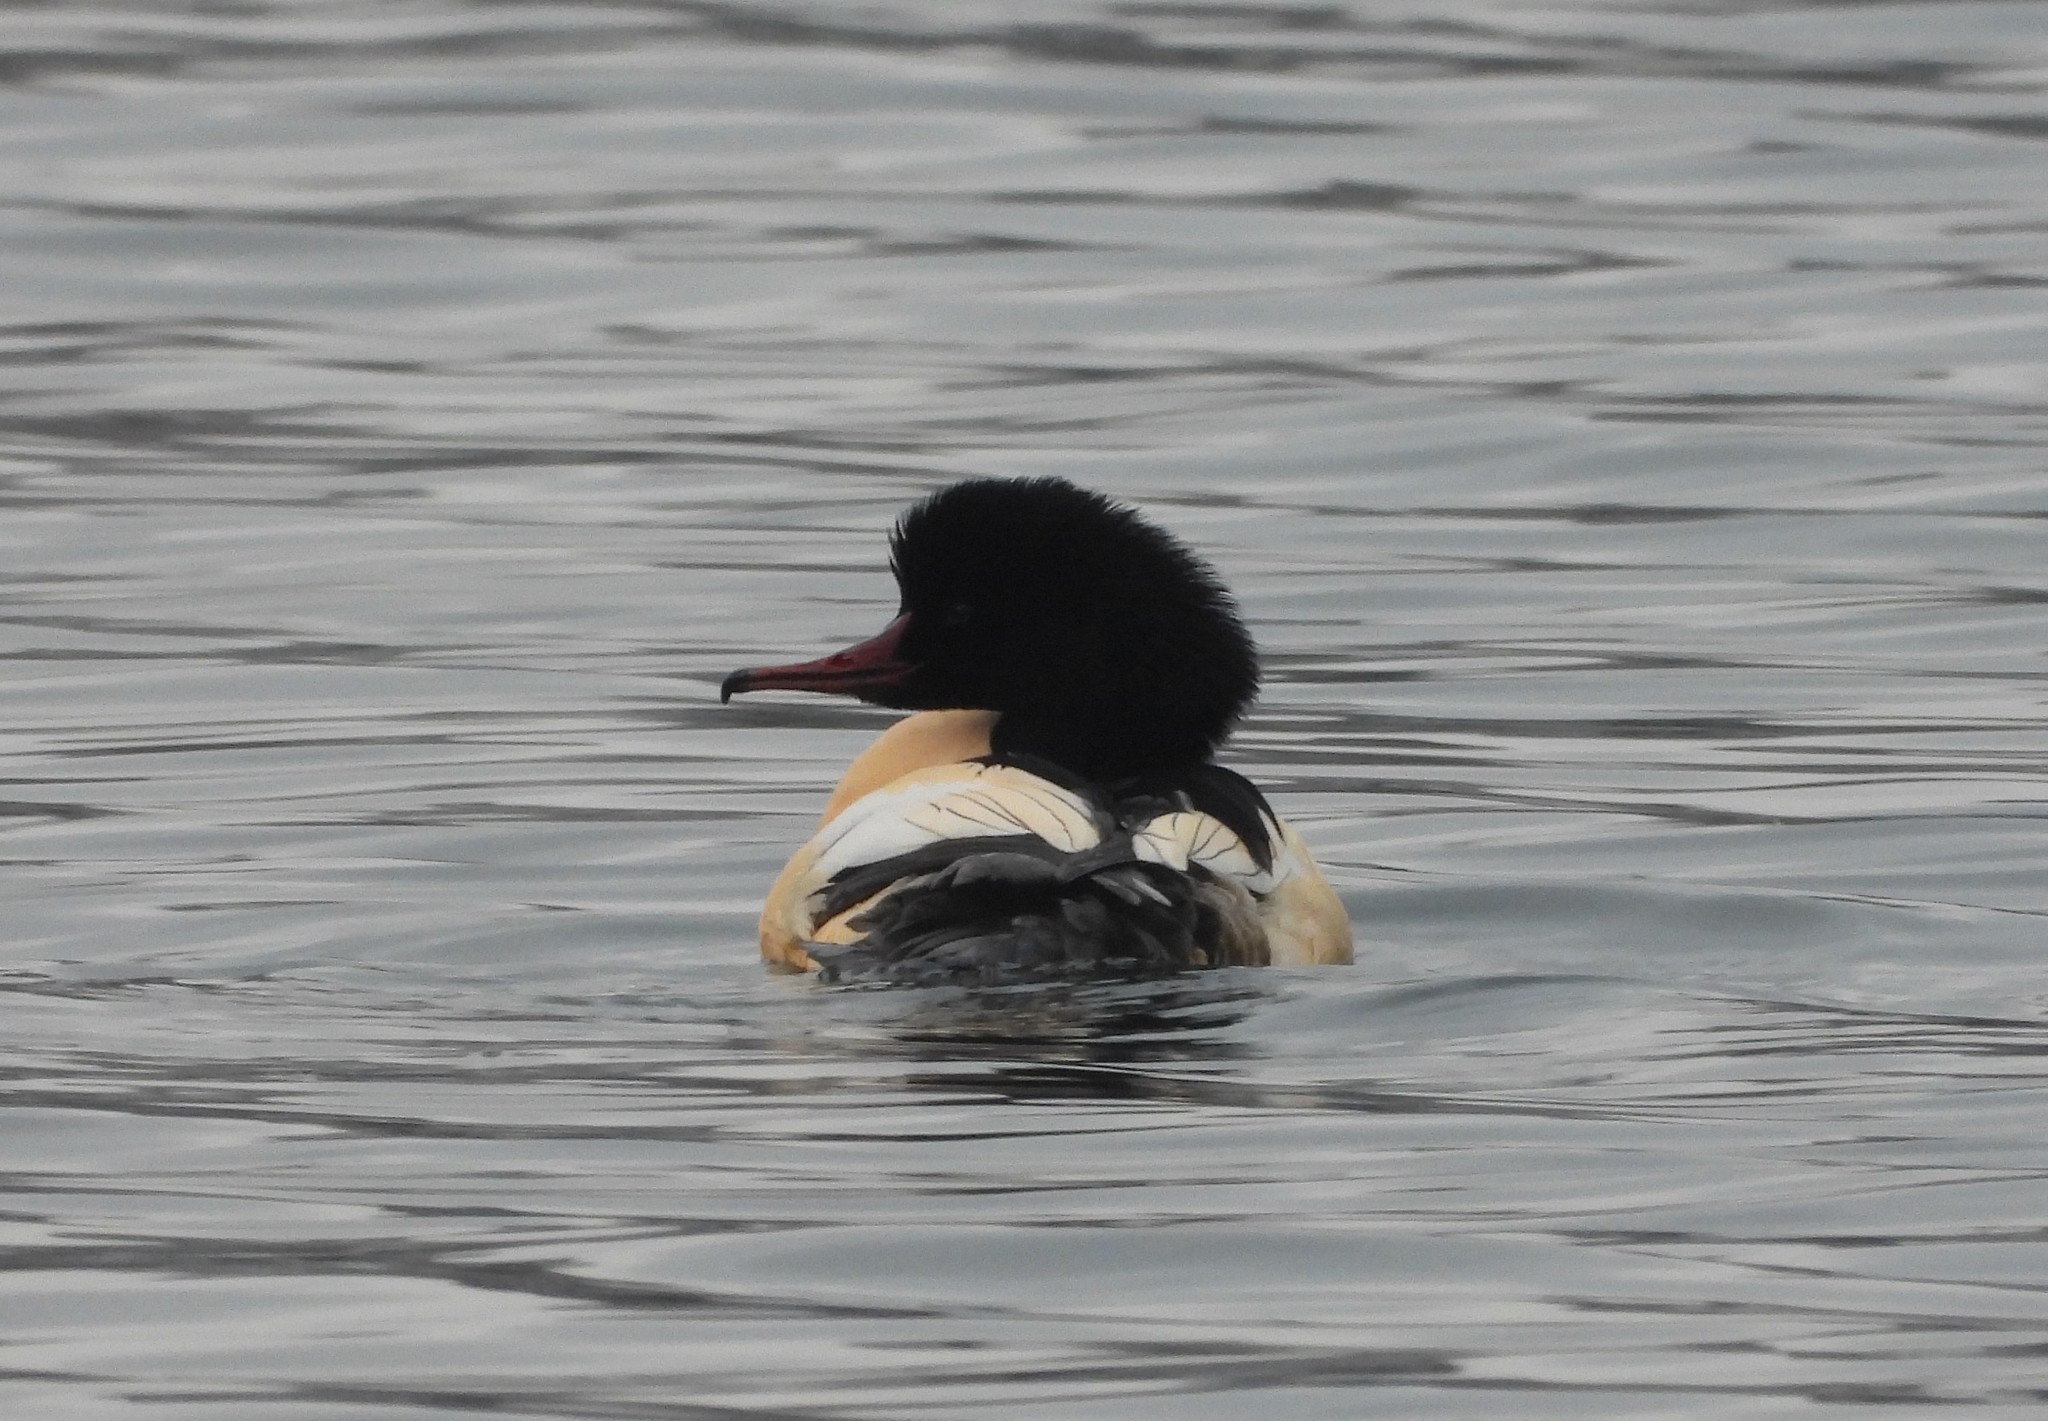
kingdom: Animalia
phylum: Chordata
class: Aves
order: Anseriformes
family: Anatidae
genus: Mergus
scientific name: Mergus merganser
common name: Common merganser
